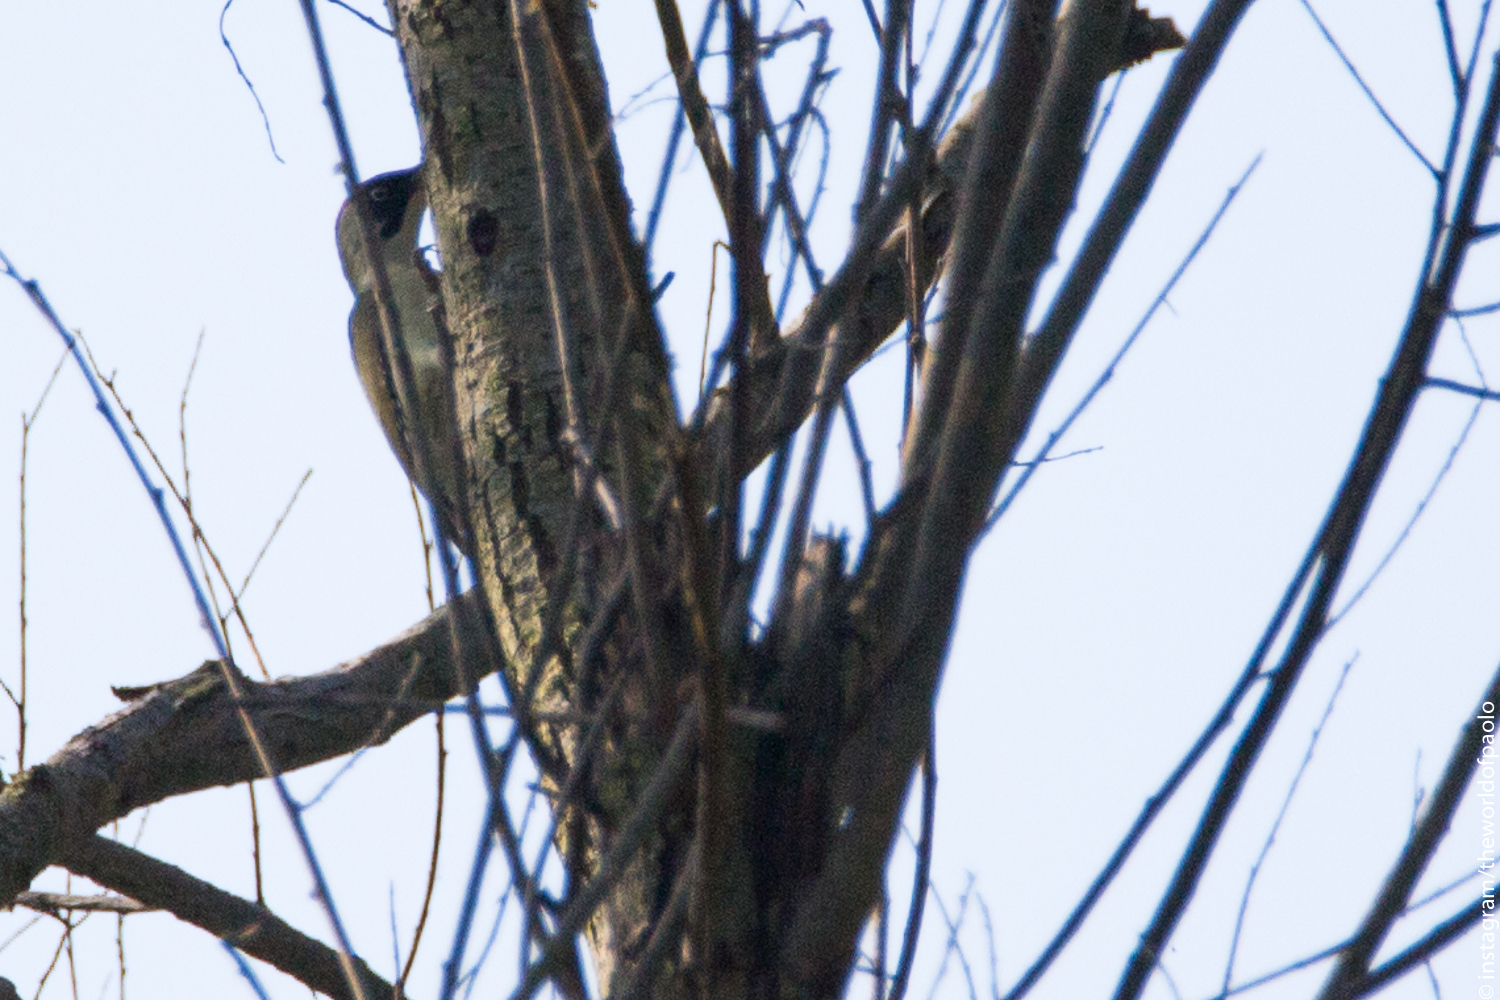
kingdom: Animalia
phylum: Chordata
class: Aves
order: Piciformes
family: Picidae
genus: Picus
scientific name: Picus viridis
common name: European green woodpecker
